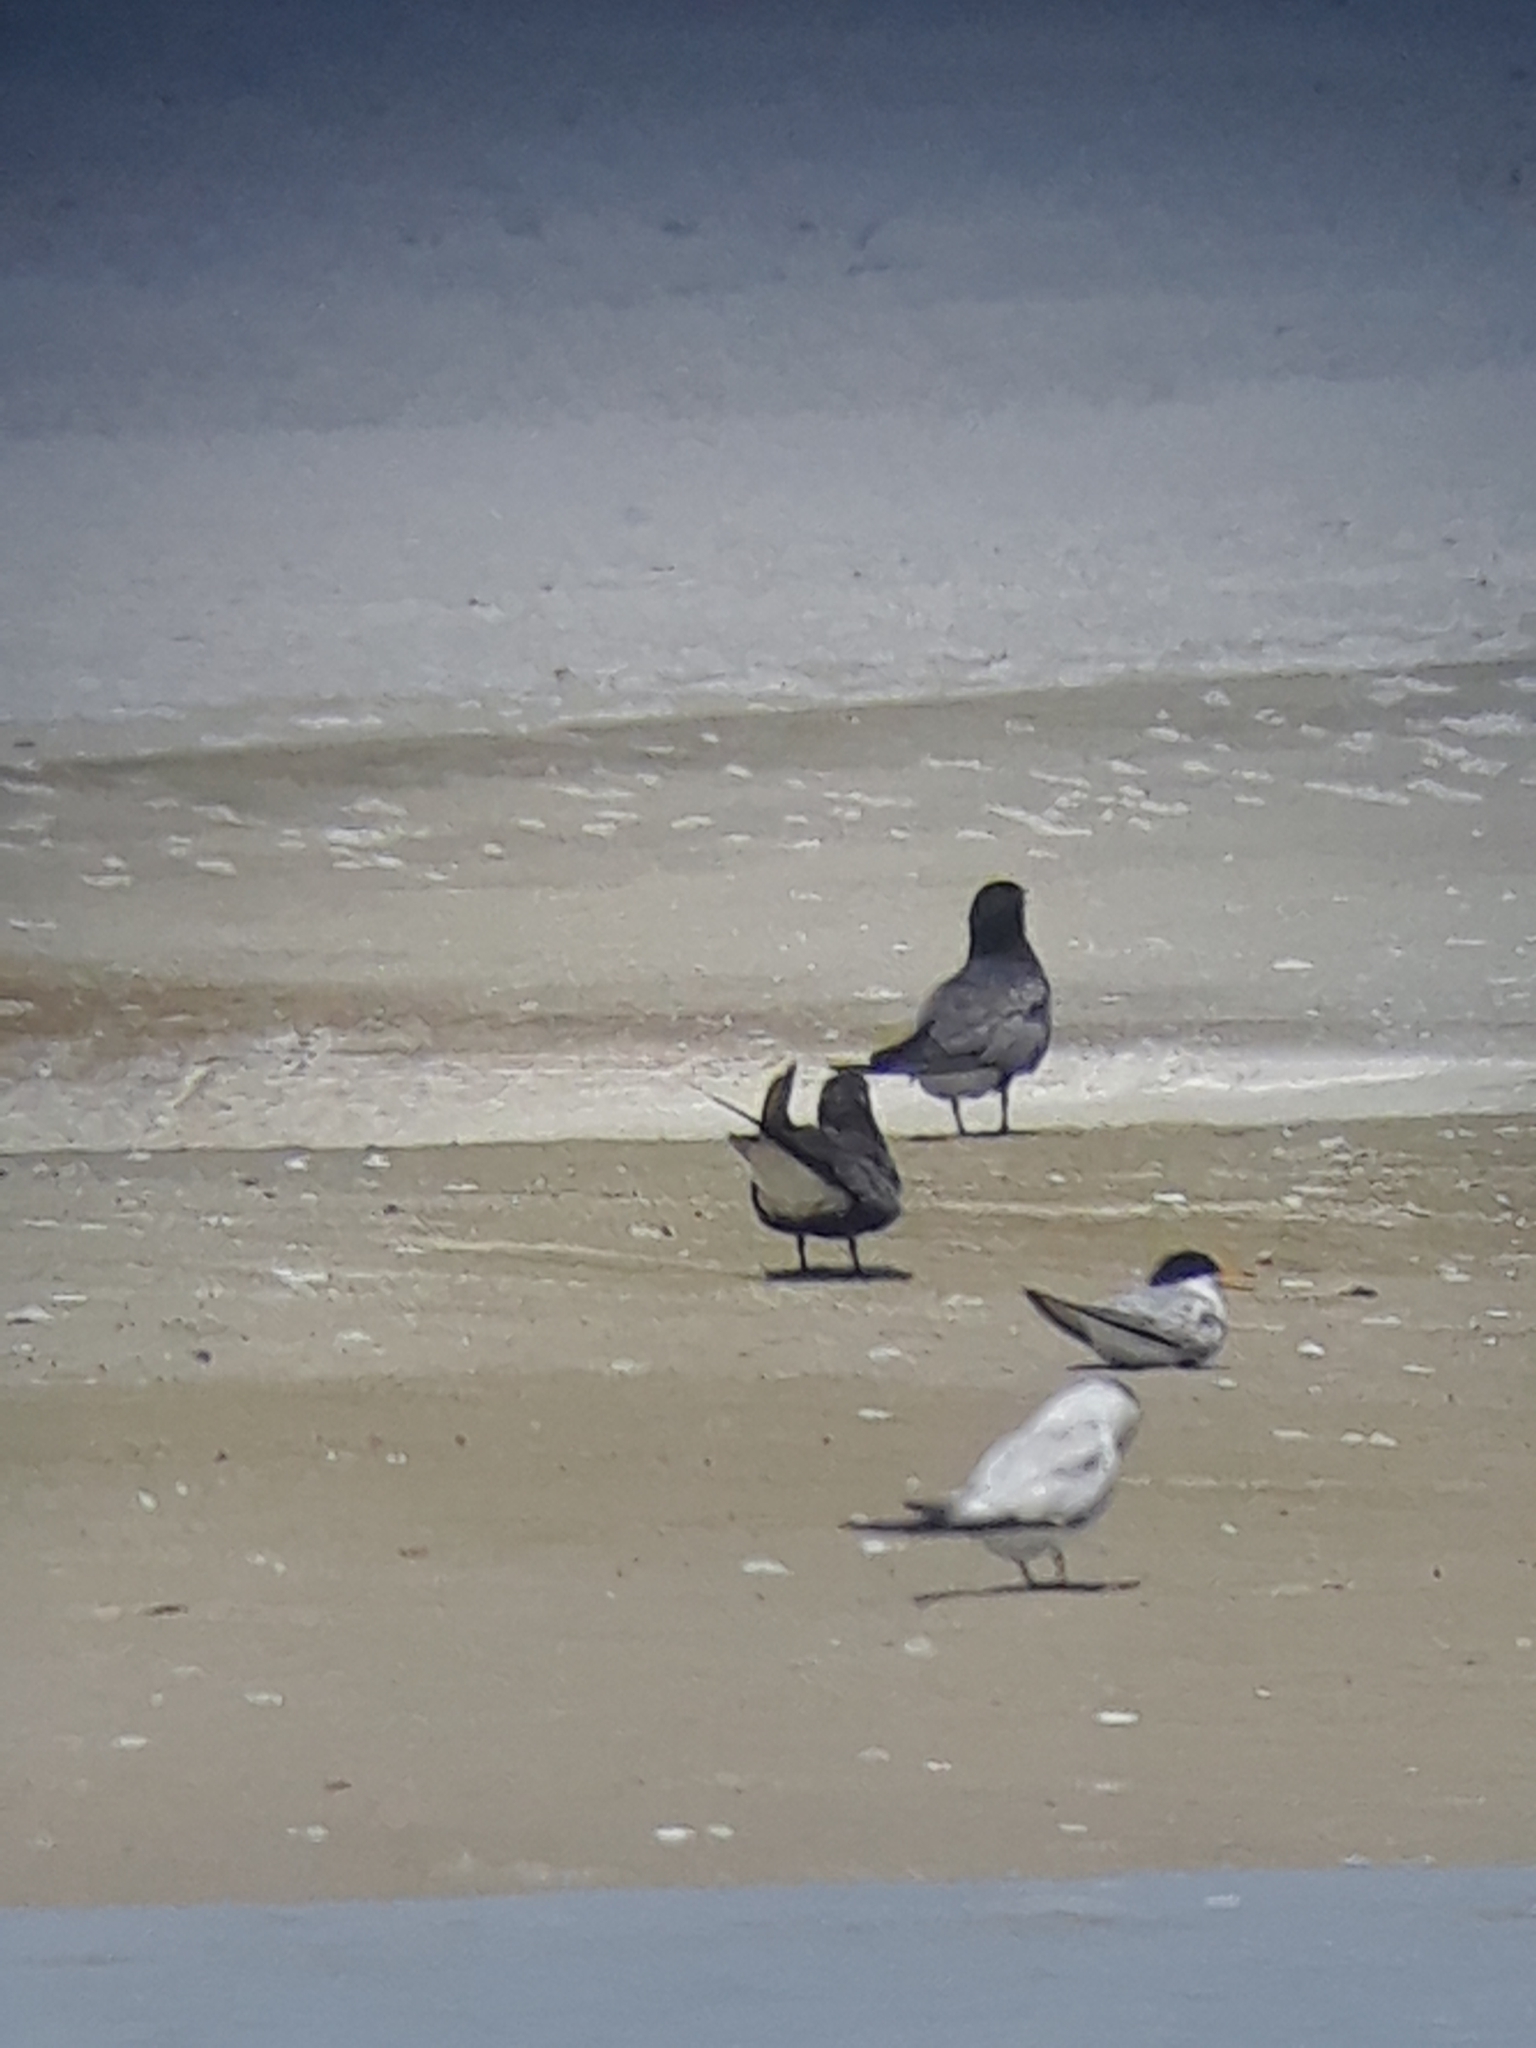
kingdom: Animalia
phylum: Chordata
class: Aves
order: Charadriiformes
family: Laridae
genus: Chlidonias
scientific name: Chlidonias niger
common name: Black tern
